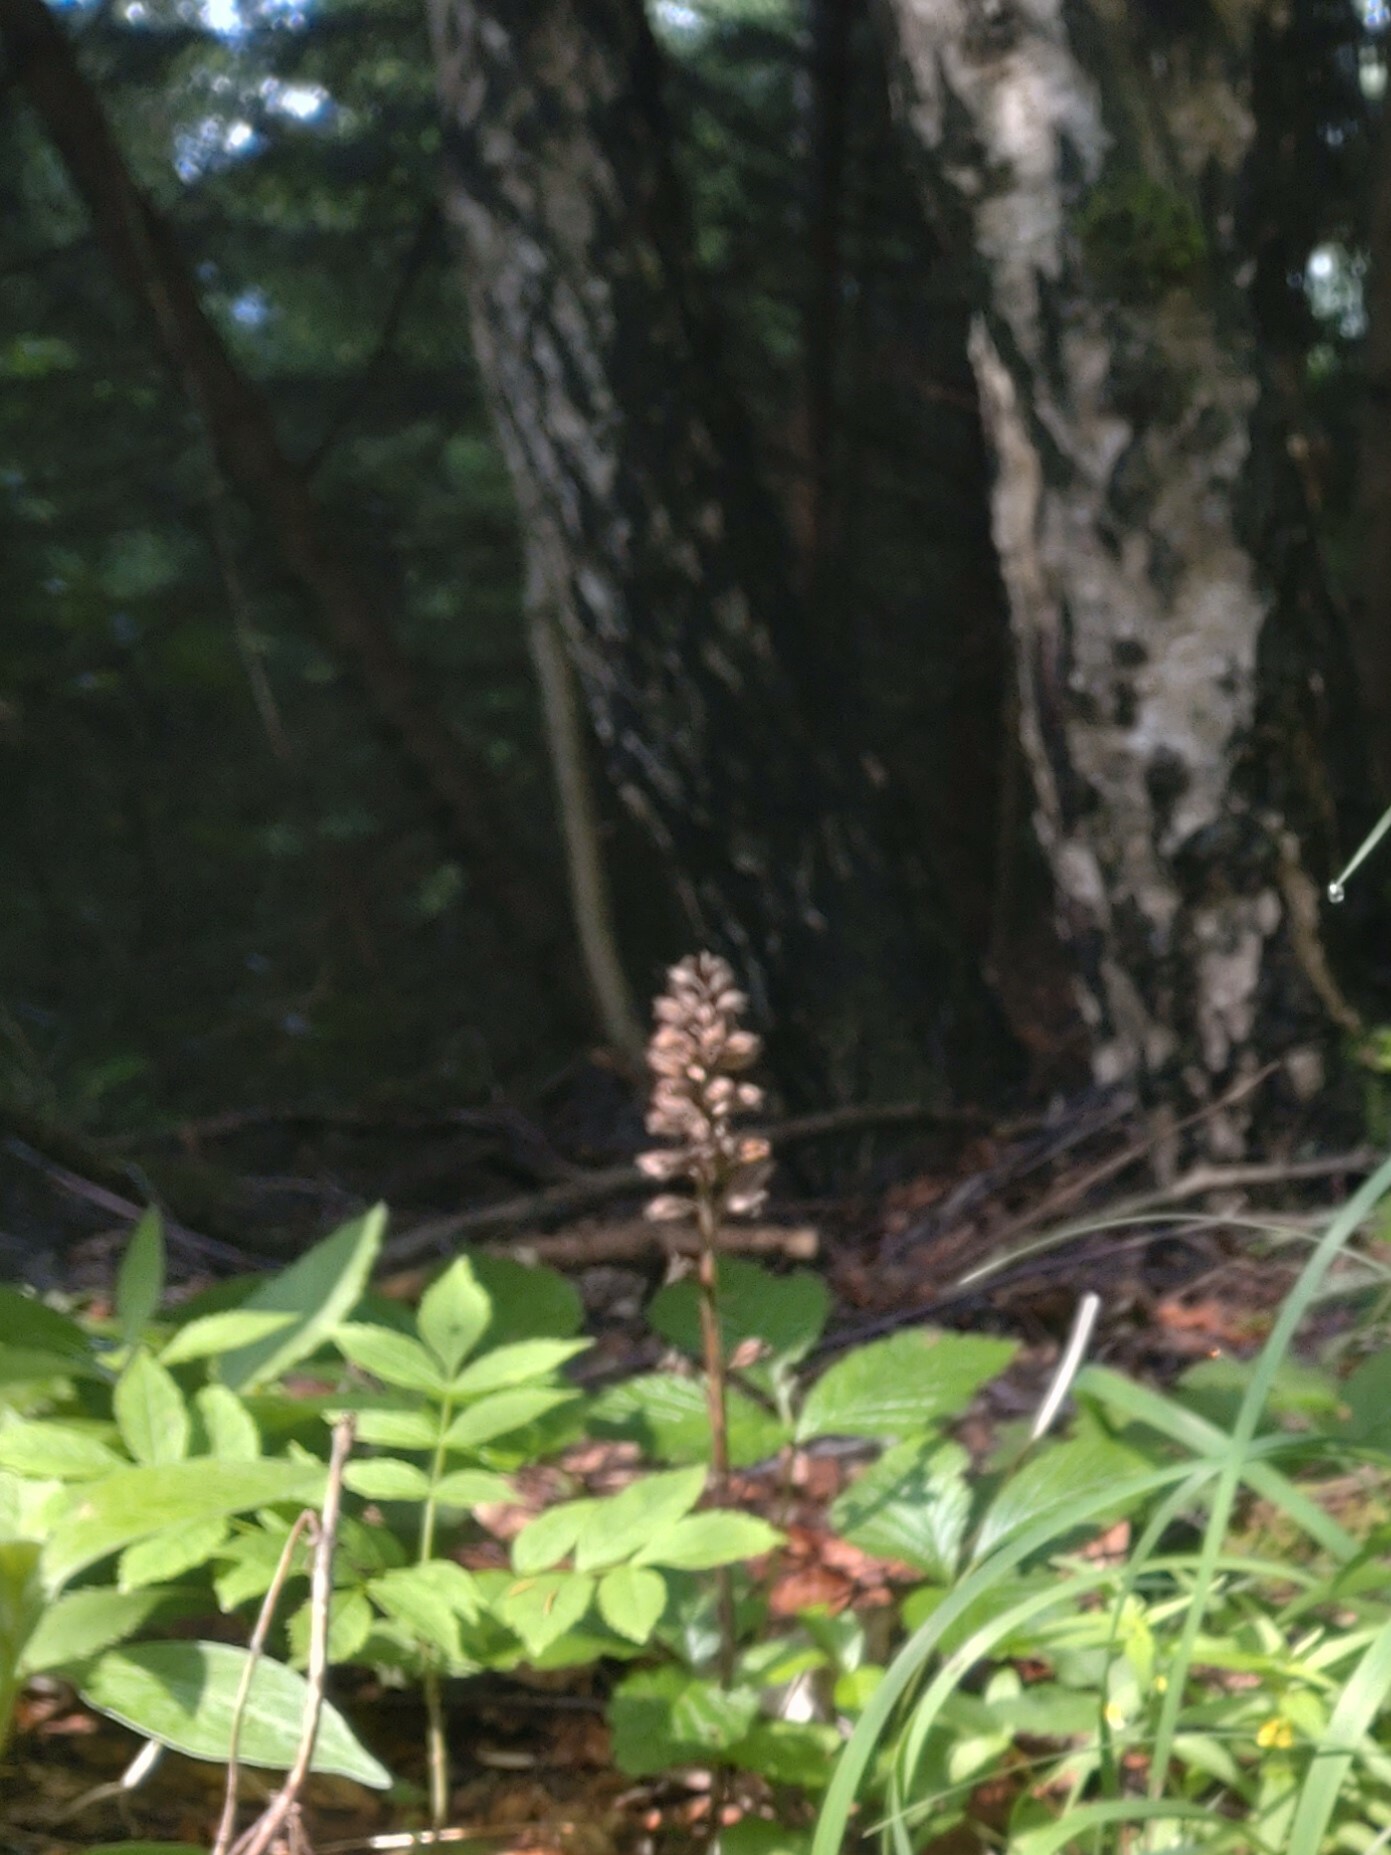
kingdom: Plantae
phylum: Tracheophyta
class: Liliopsida
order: Asparagales
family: Orchidaceae
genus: Neottia
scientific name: Neottia nidus-avis
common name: Bird's-nest orchid
